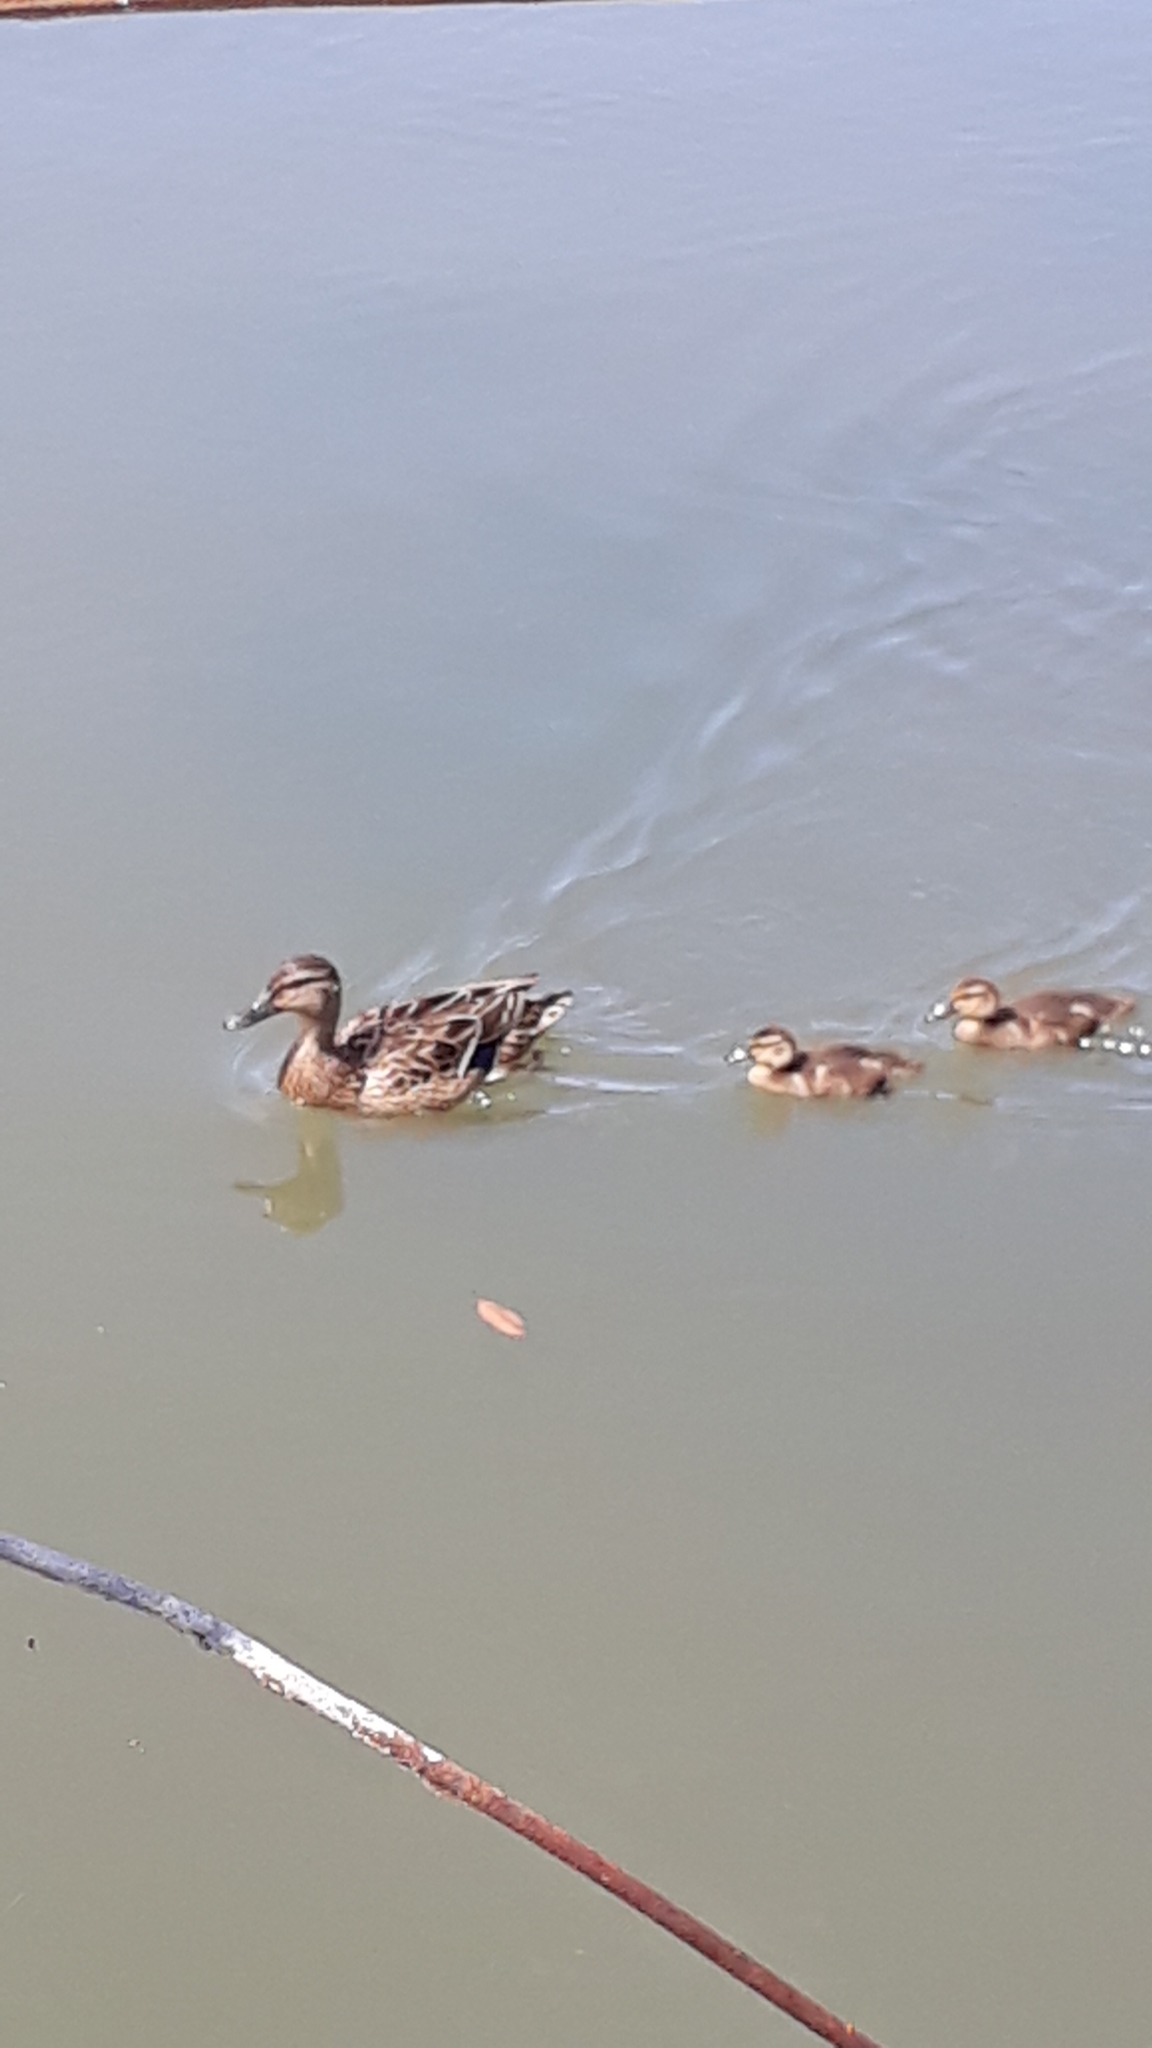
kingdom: Animalia
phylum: Chordata
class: Aves
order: Anseriformes
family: Anatidae
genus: Anas
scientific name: Anas platyrhynchos
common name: Mallard
